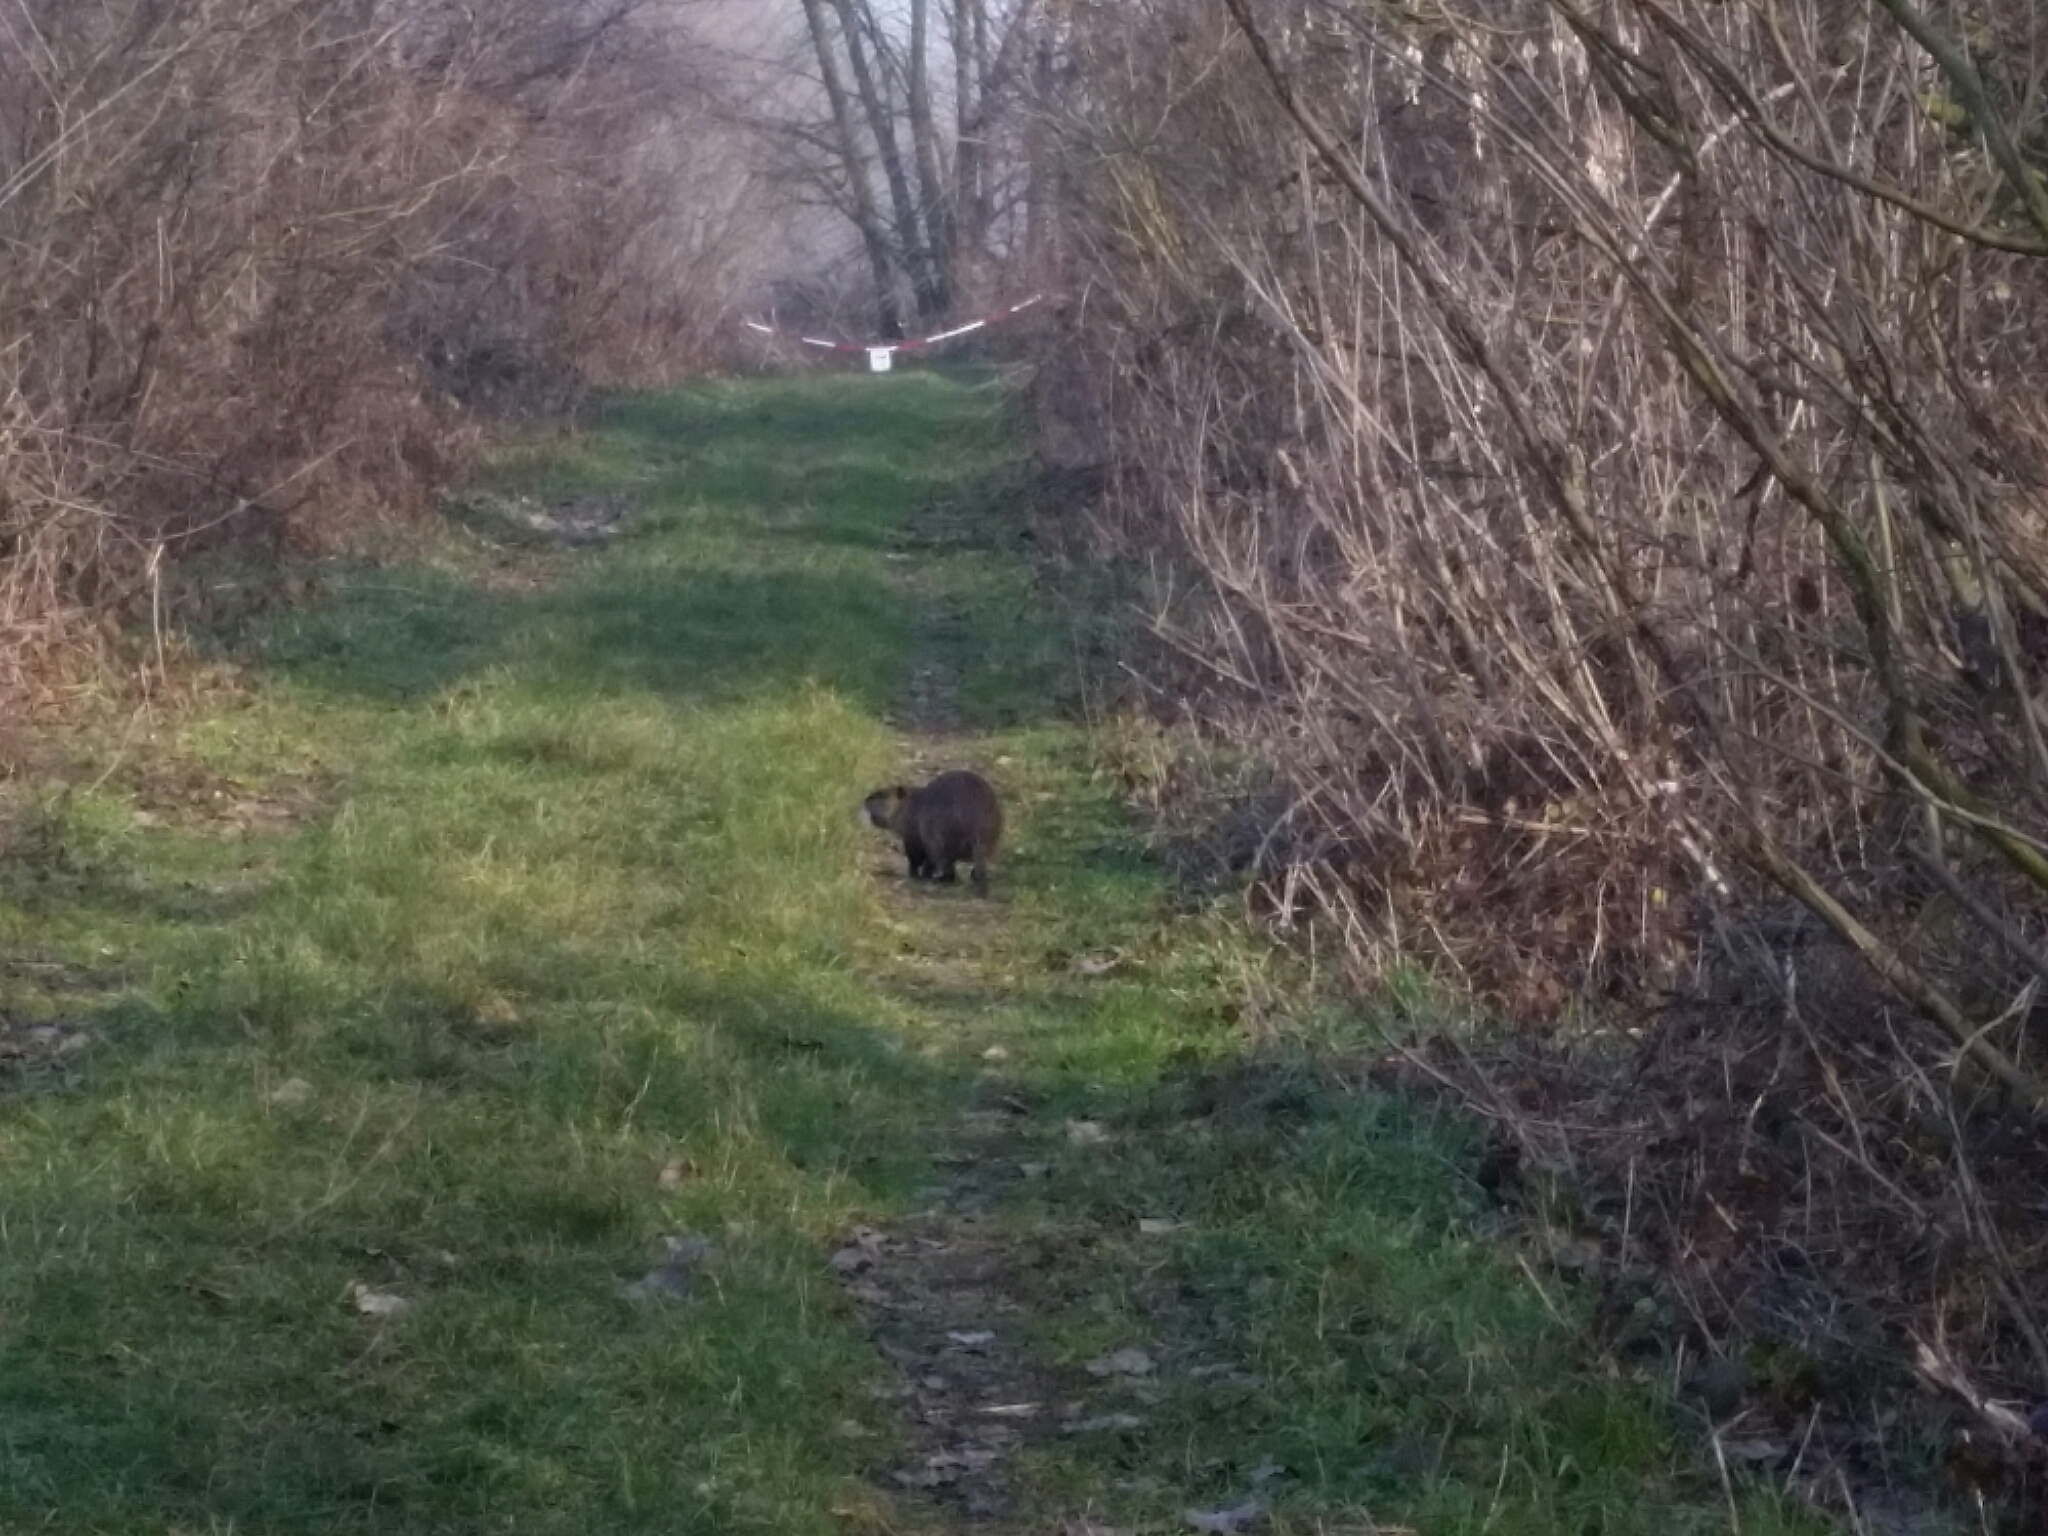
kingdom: Animalia
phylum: Chordata
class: Mammalia
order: Rodentia
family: Myocastoridae
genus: Myocastor
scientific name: Myocastor coypus
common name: Coypu
